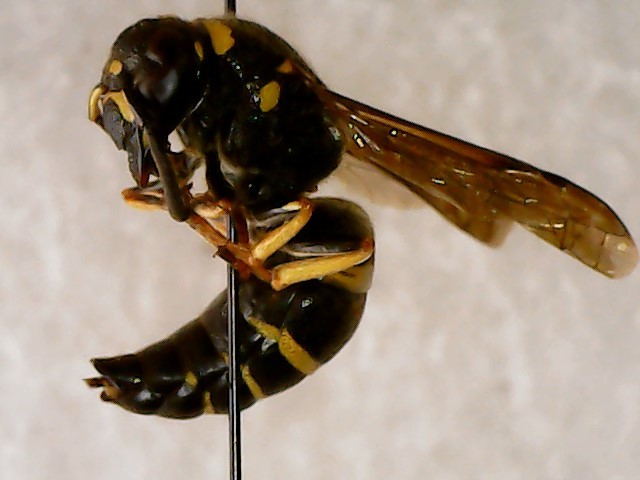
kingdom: Animalia
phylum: Arthropoda
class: Insecta
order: Hymenoptera
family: Eumenidae
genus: Euodynerus
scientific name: Euodynerus foraminatus
